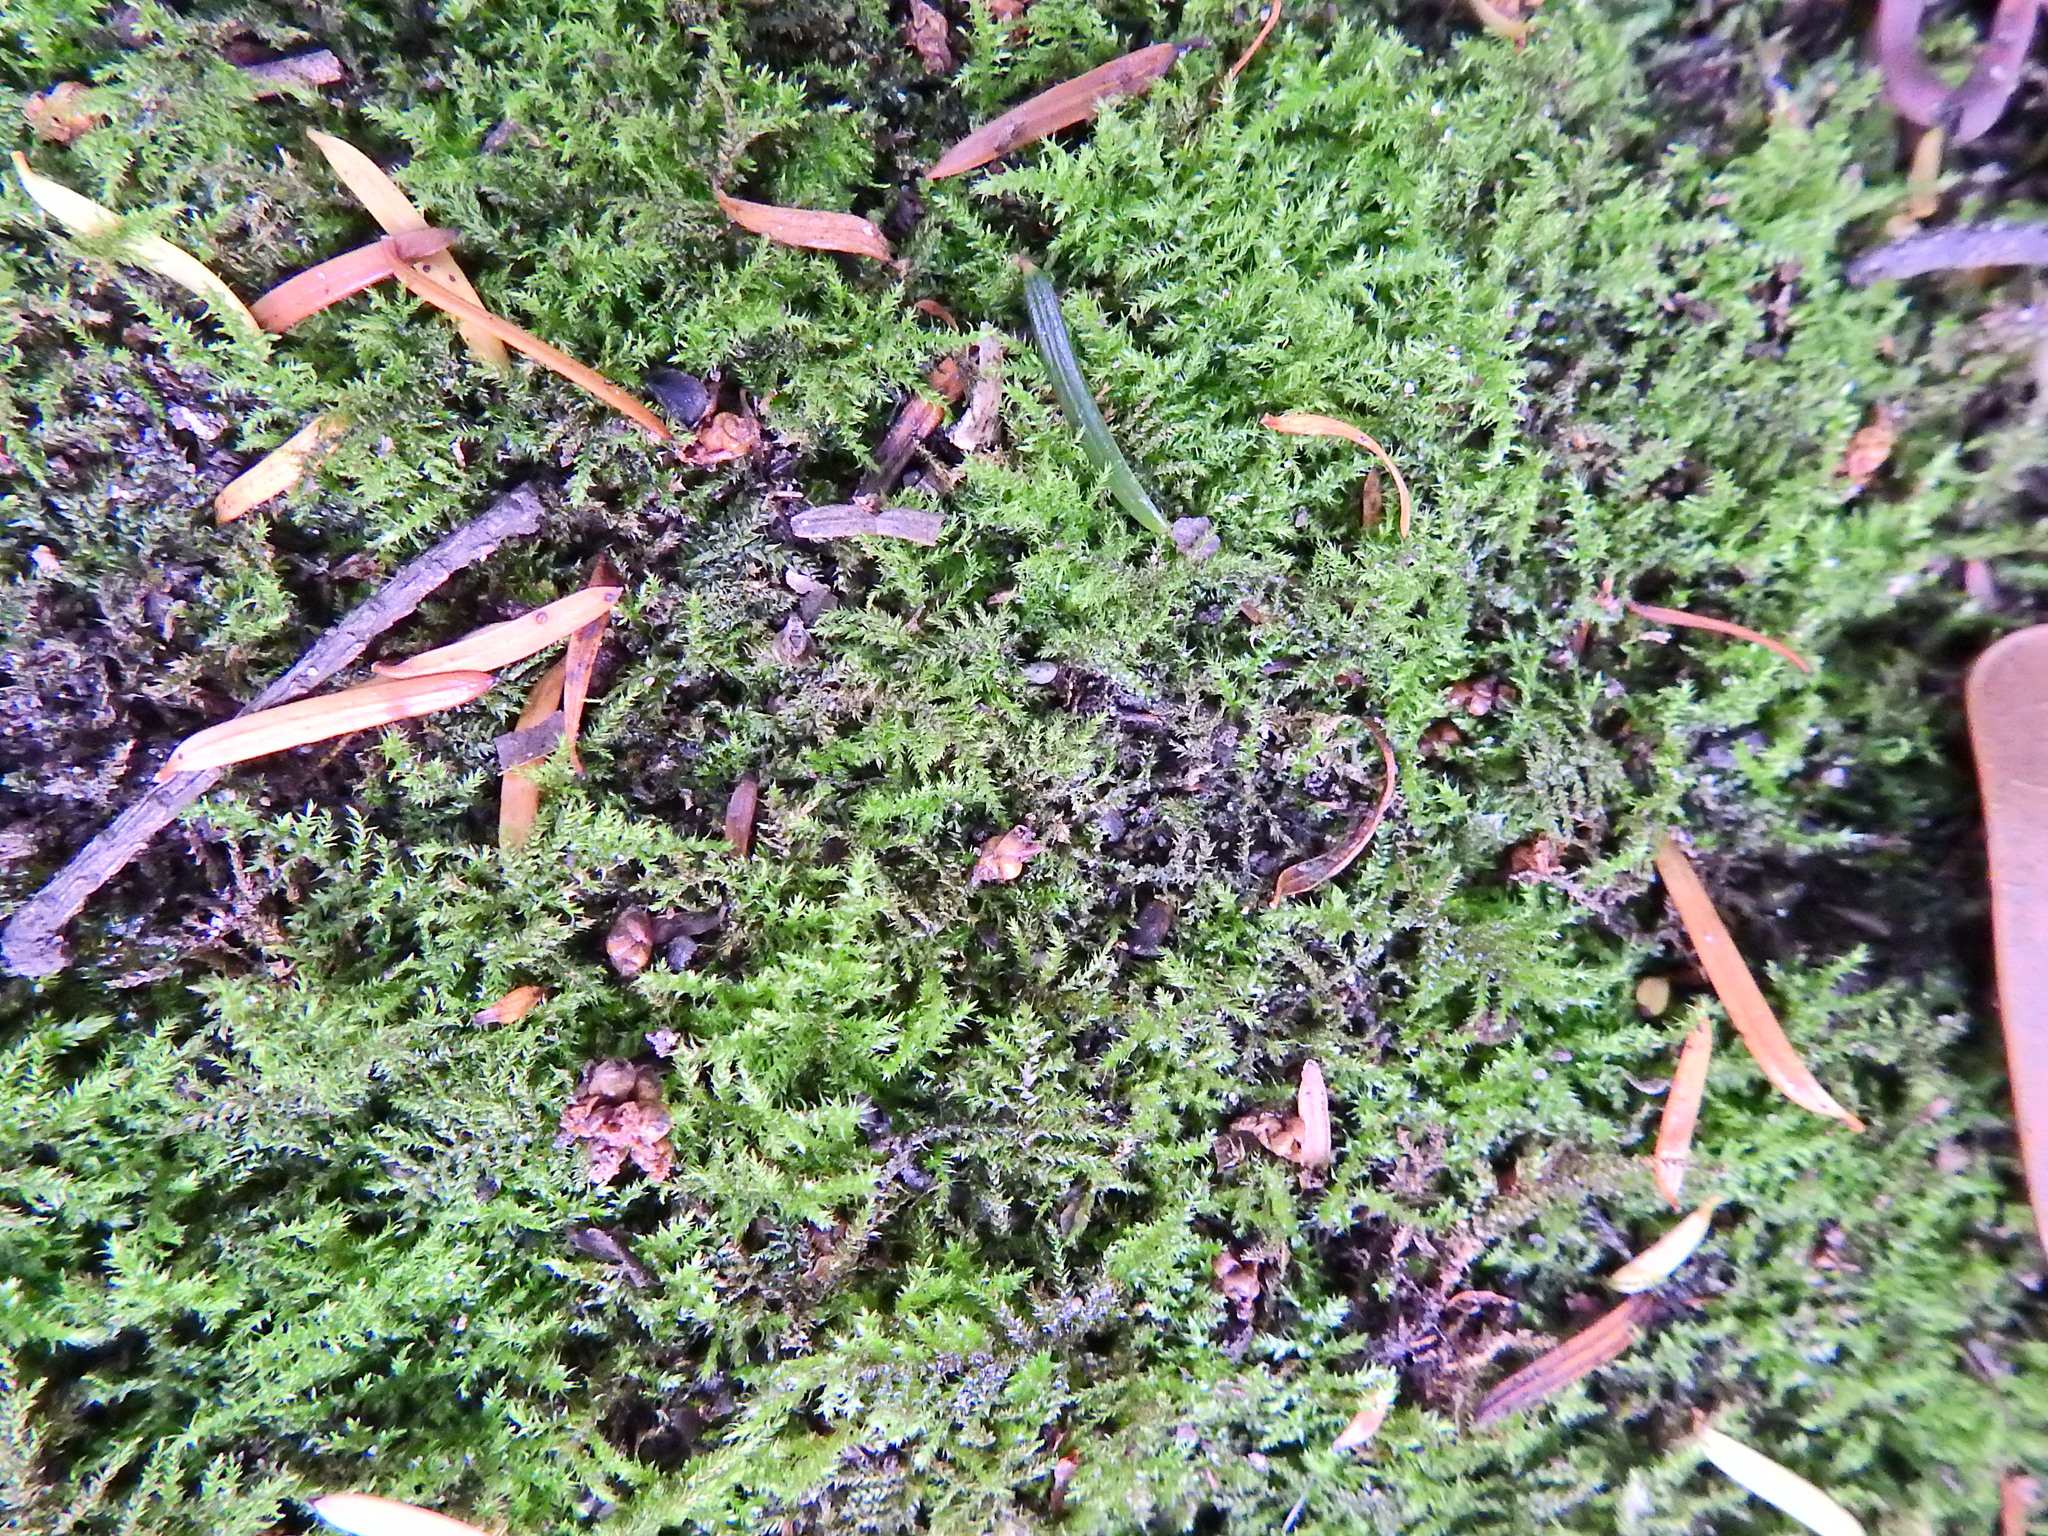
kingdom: Plantae
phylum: Bryophyta
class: Bryopsida
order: Hypnales
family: Brachytheciaceae
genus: Kindbergia
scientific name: Kindbergia praelonga
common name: Slender beaked moss
